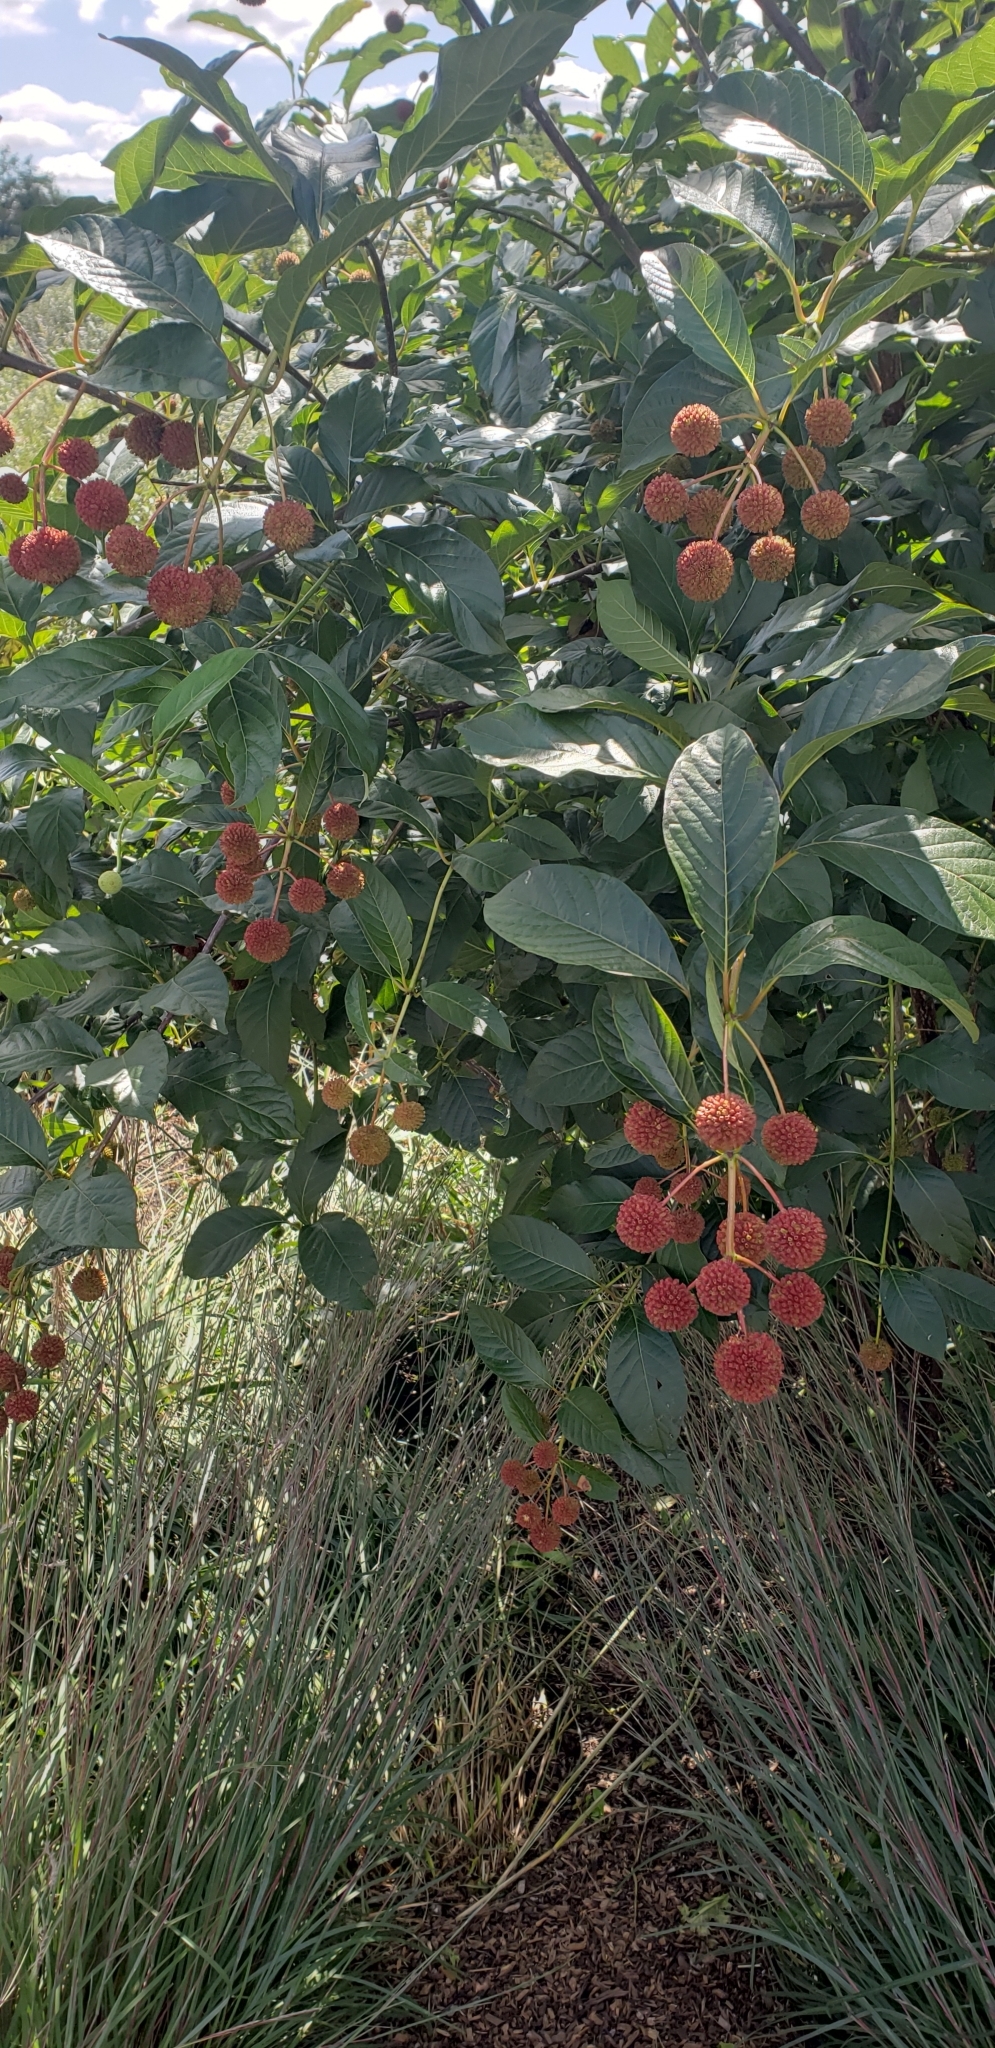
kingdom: Plantae
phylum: Tracheophyta
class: Magnoliopsida
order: Gentianales
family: Rubiaceae
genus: Cephalanthus
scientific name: Cephalanthus occidentalis
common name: Button-willow
